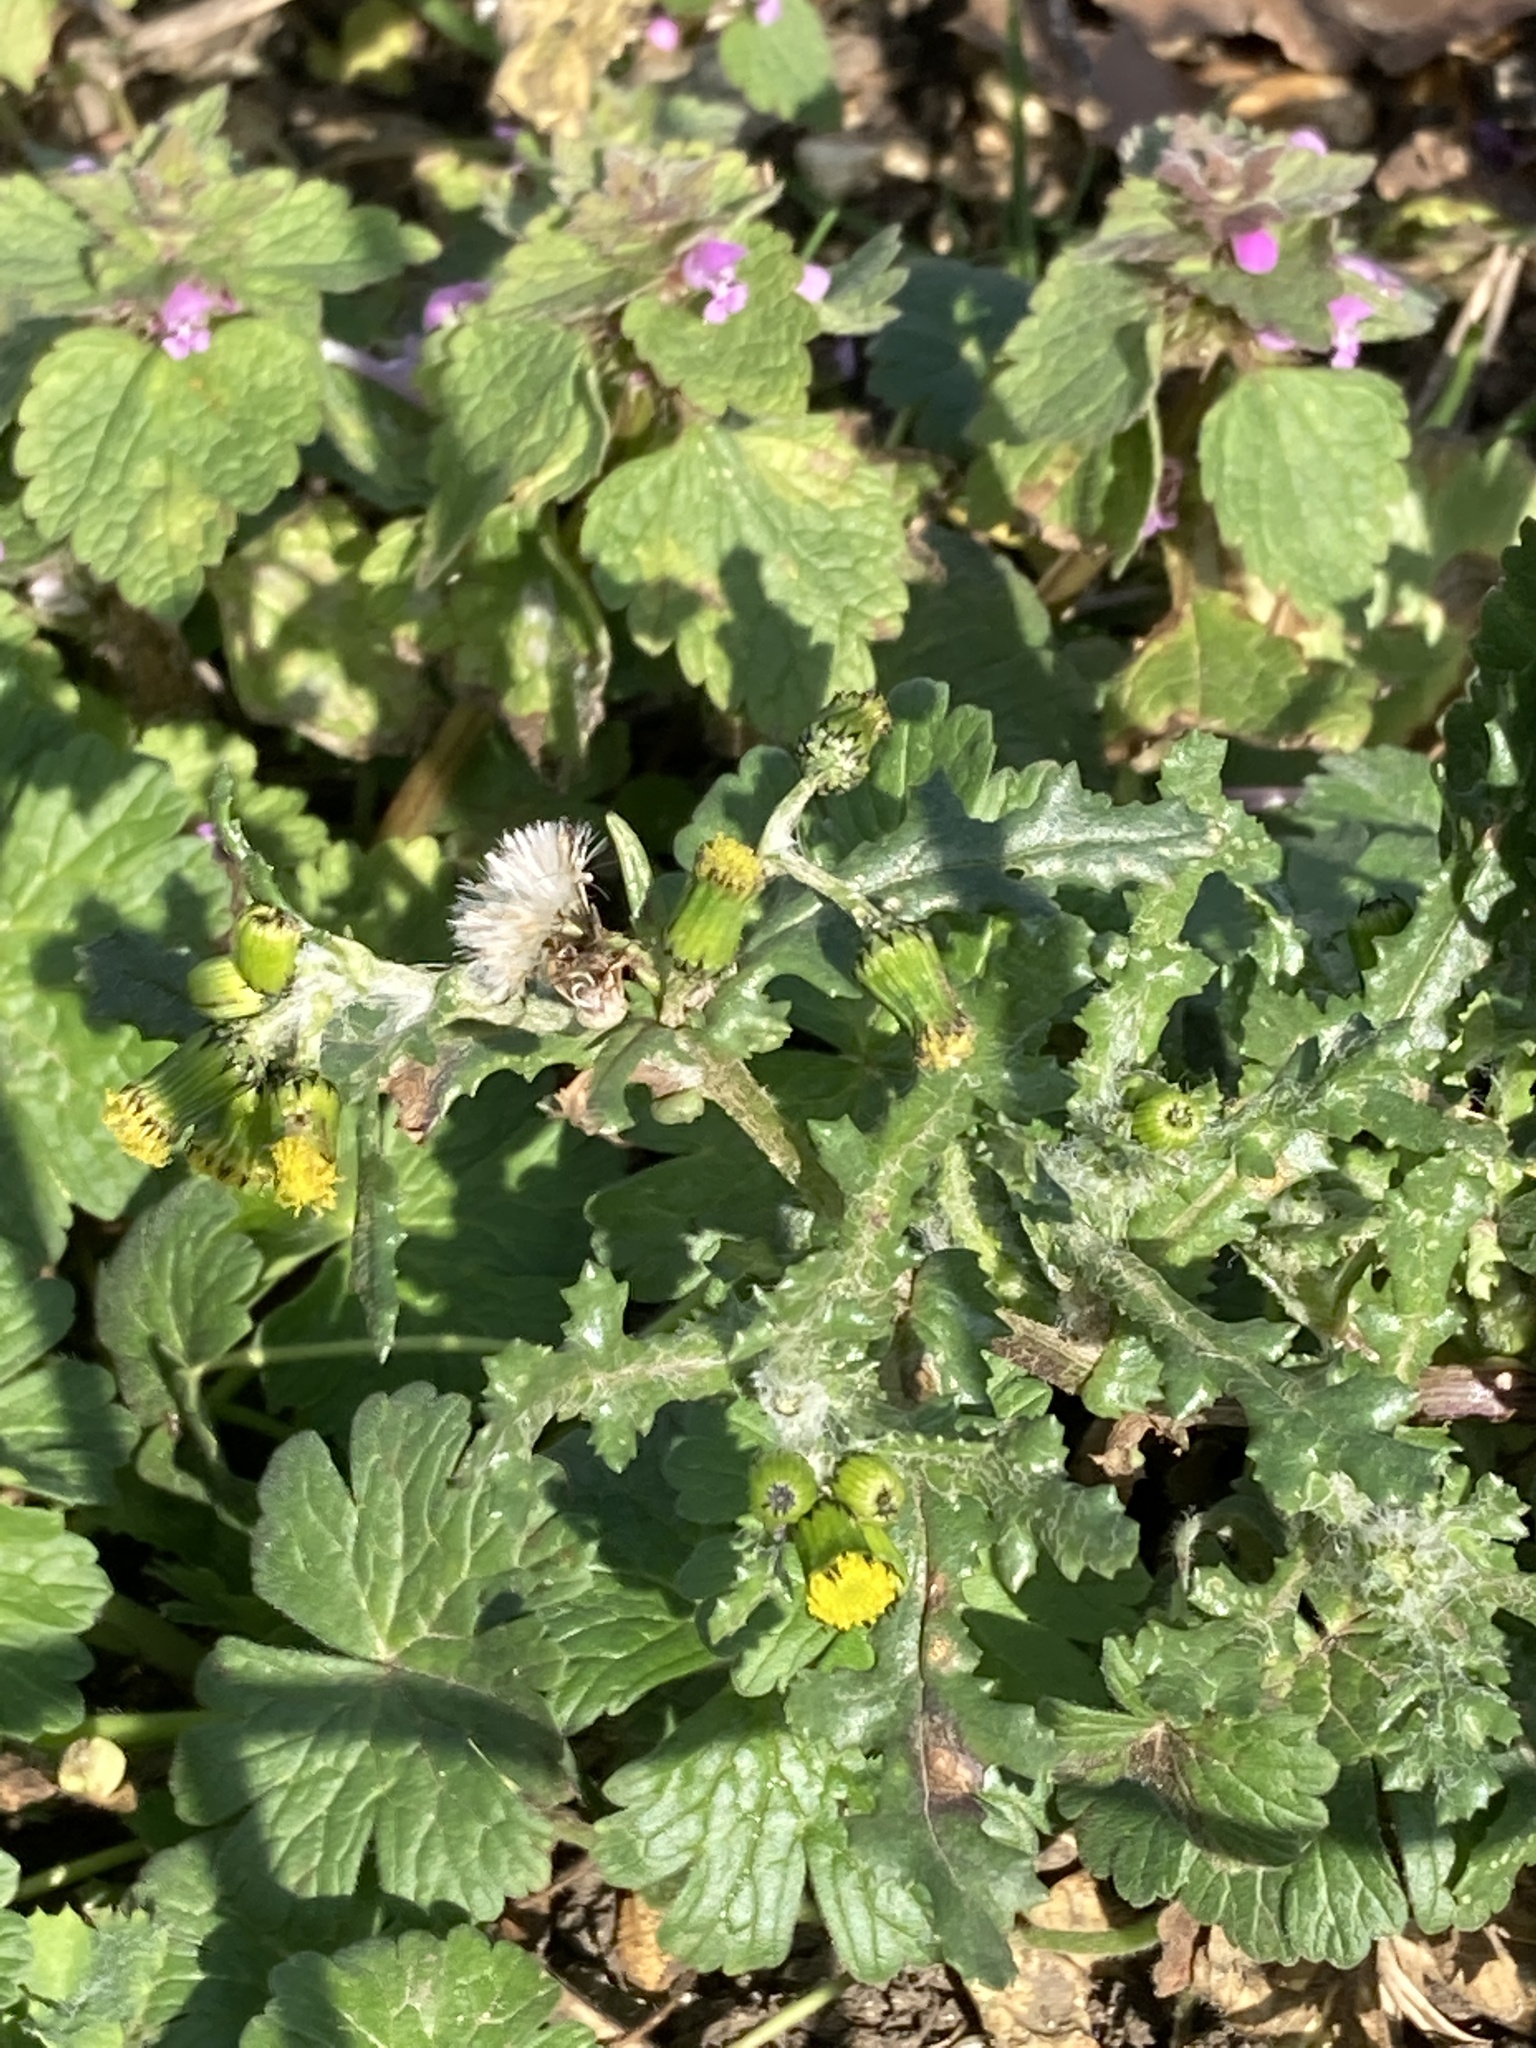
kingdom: Plantae
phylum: Tracheophyta
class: Magnoliopsida
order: Asterales
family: Asteraceae
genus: Senecio
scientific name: Senecio vulgaris
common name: Old-man-in-the-spring
